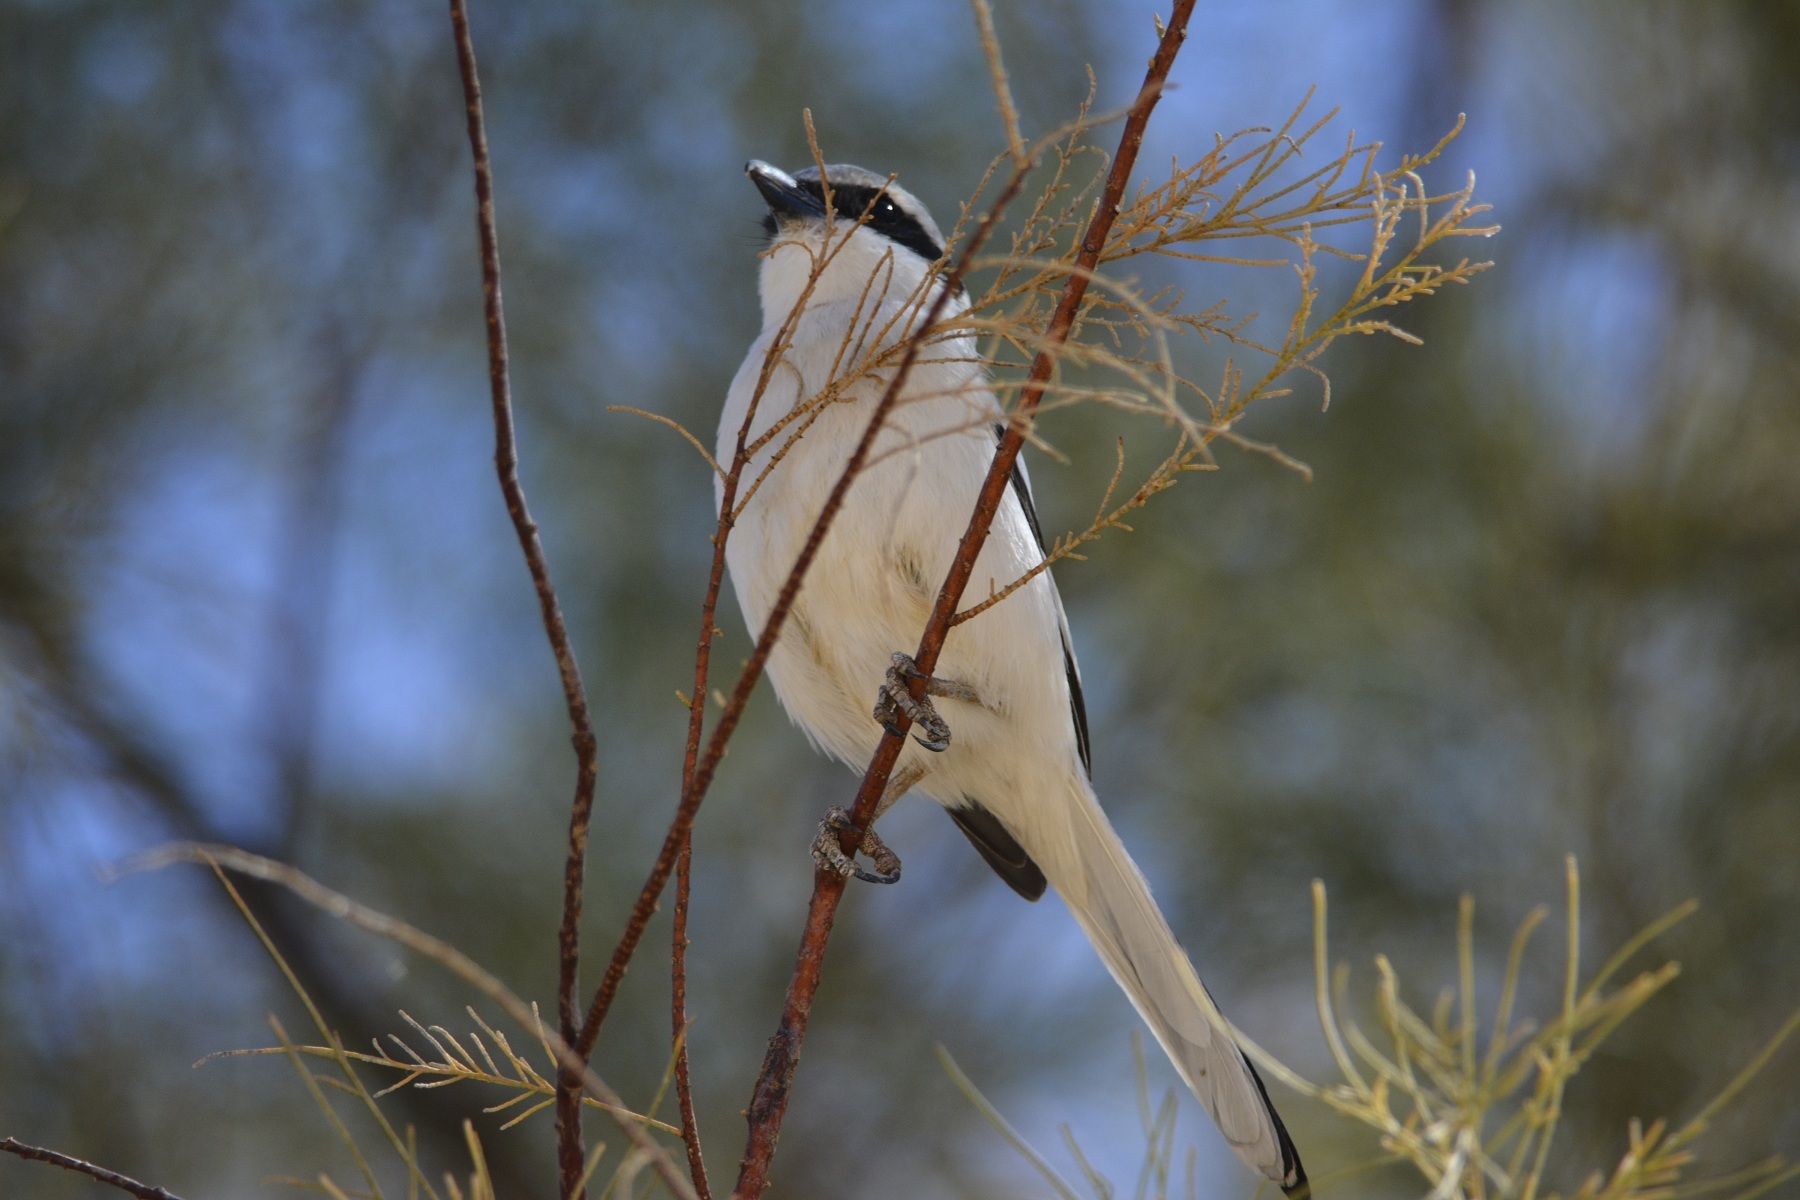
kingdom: Animalia
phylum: Chordata
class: Aves
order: Passeriformes
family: Laniidae
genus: Lanius
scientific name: Lanius excubitor
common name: Great grey shrike
